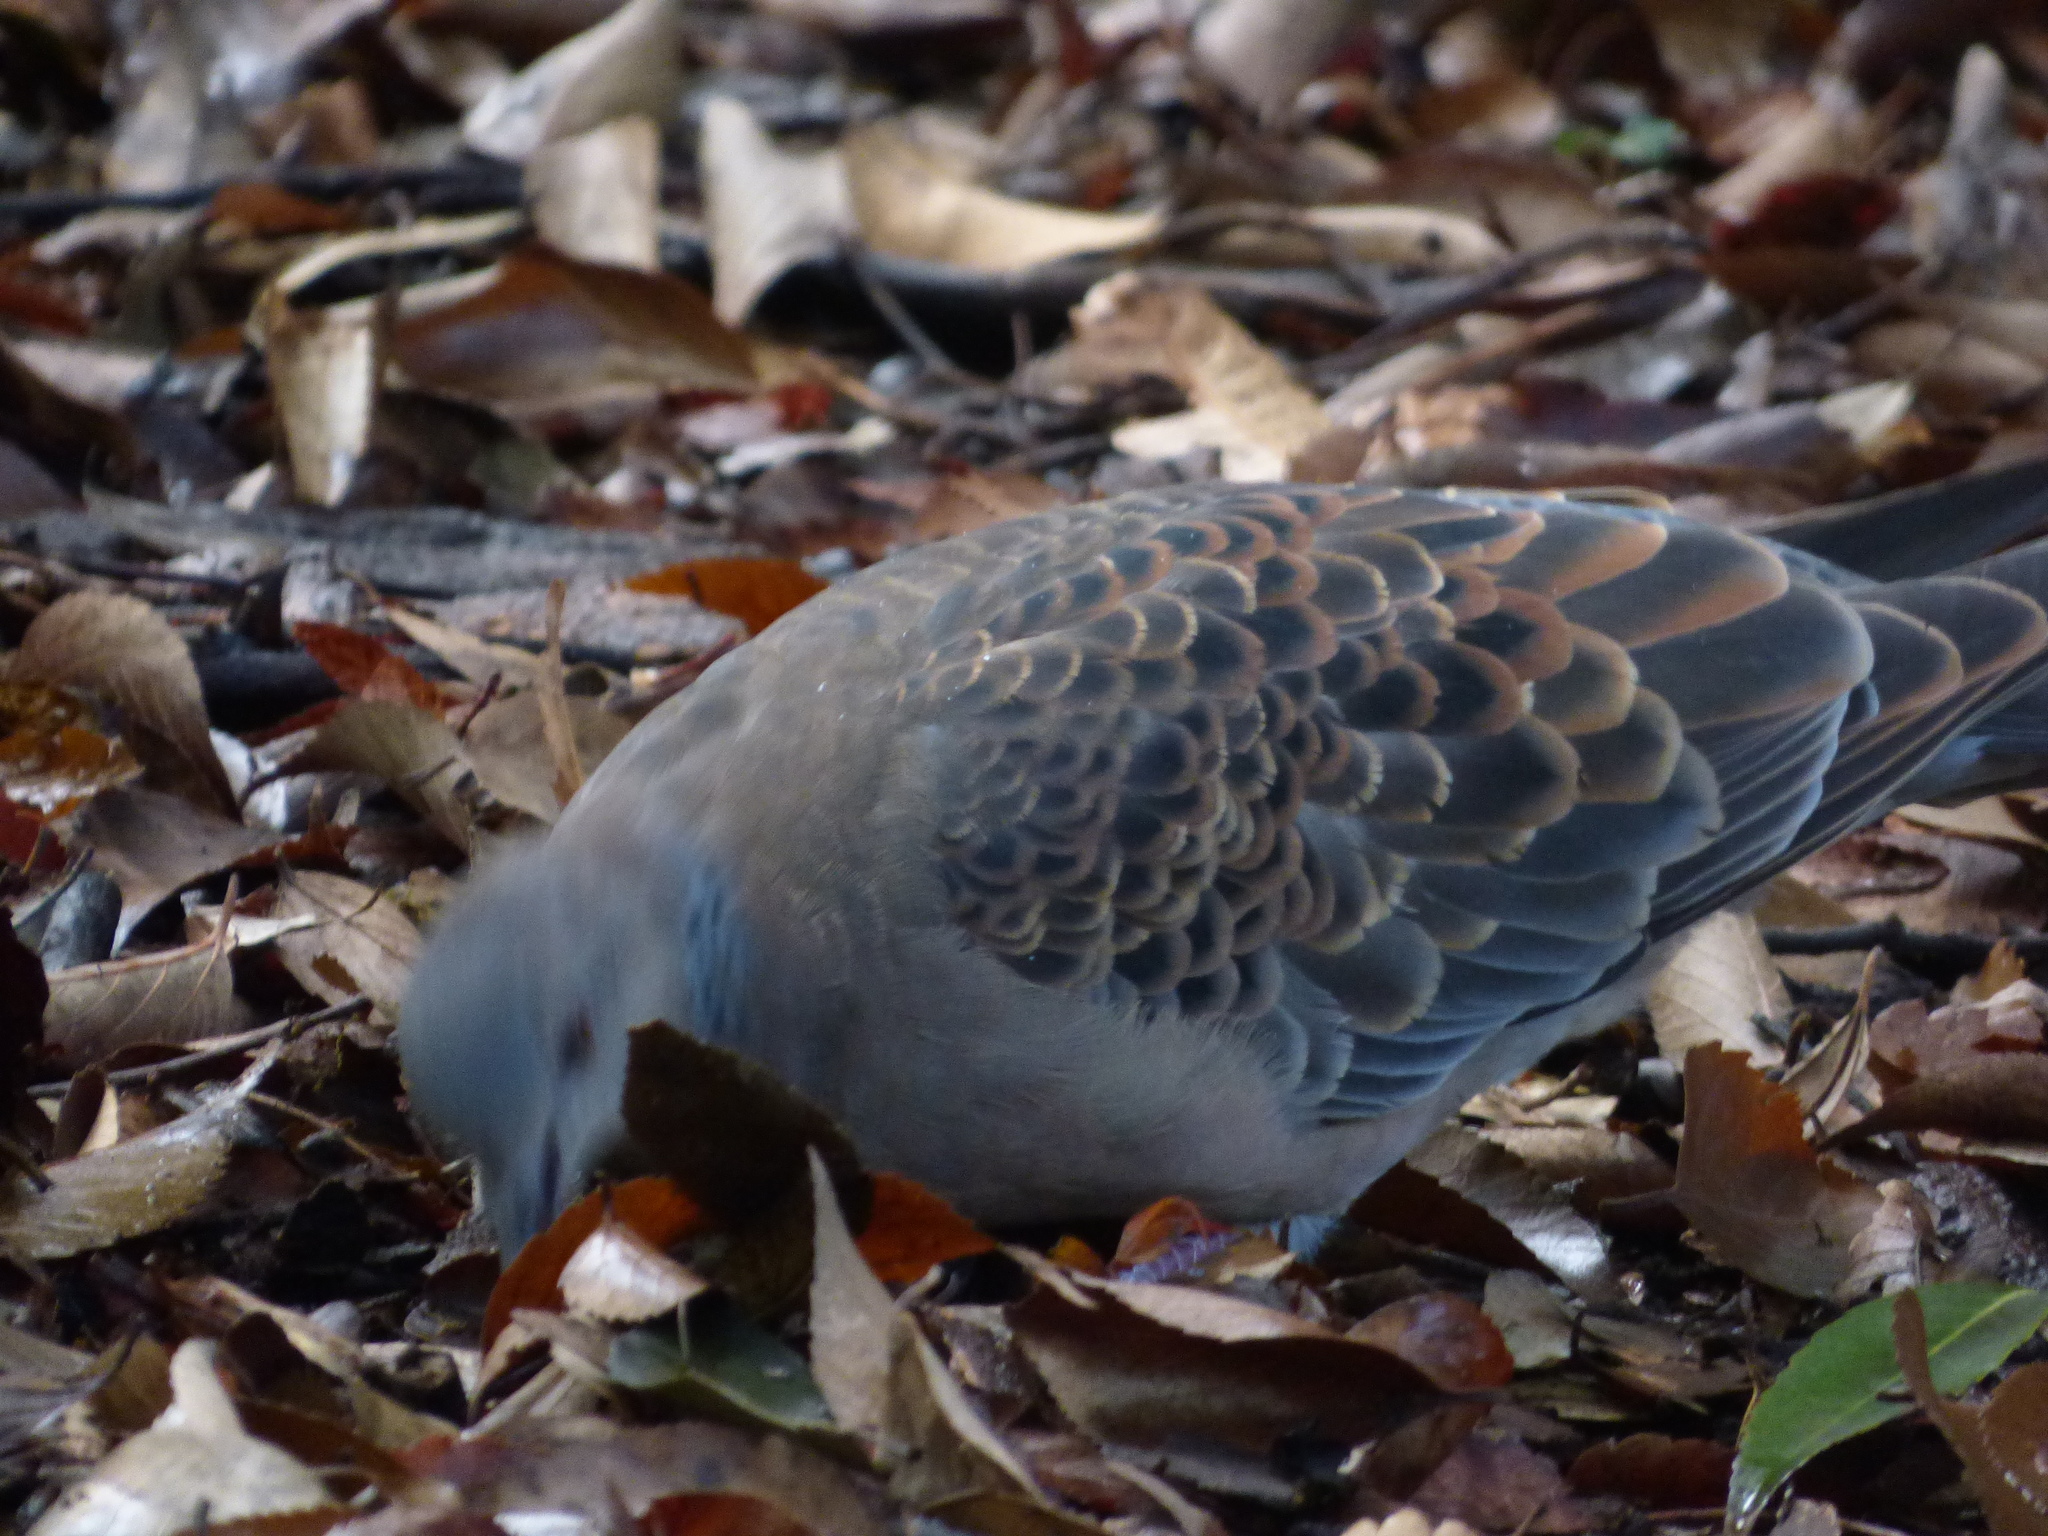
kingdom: Animalia
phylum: Chordata
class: Aves
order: Columbiformes
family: Columbidae
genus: Streptopelia
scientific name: Streptopelia orientalis
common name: Oriental turtle dove
